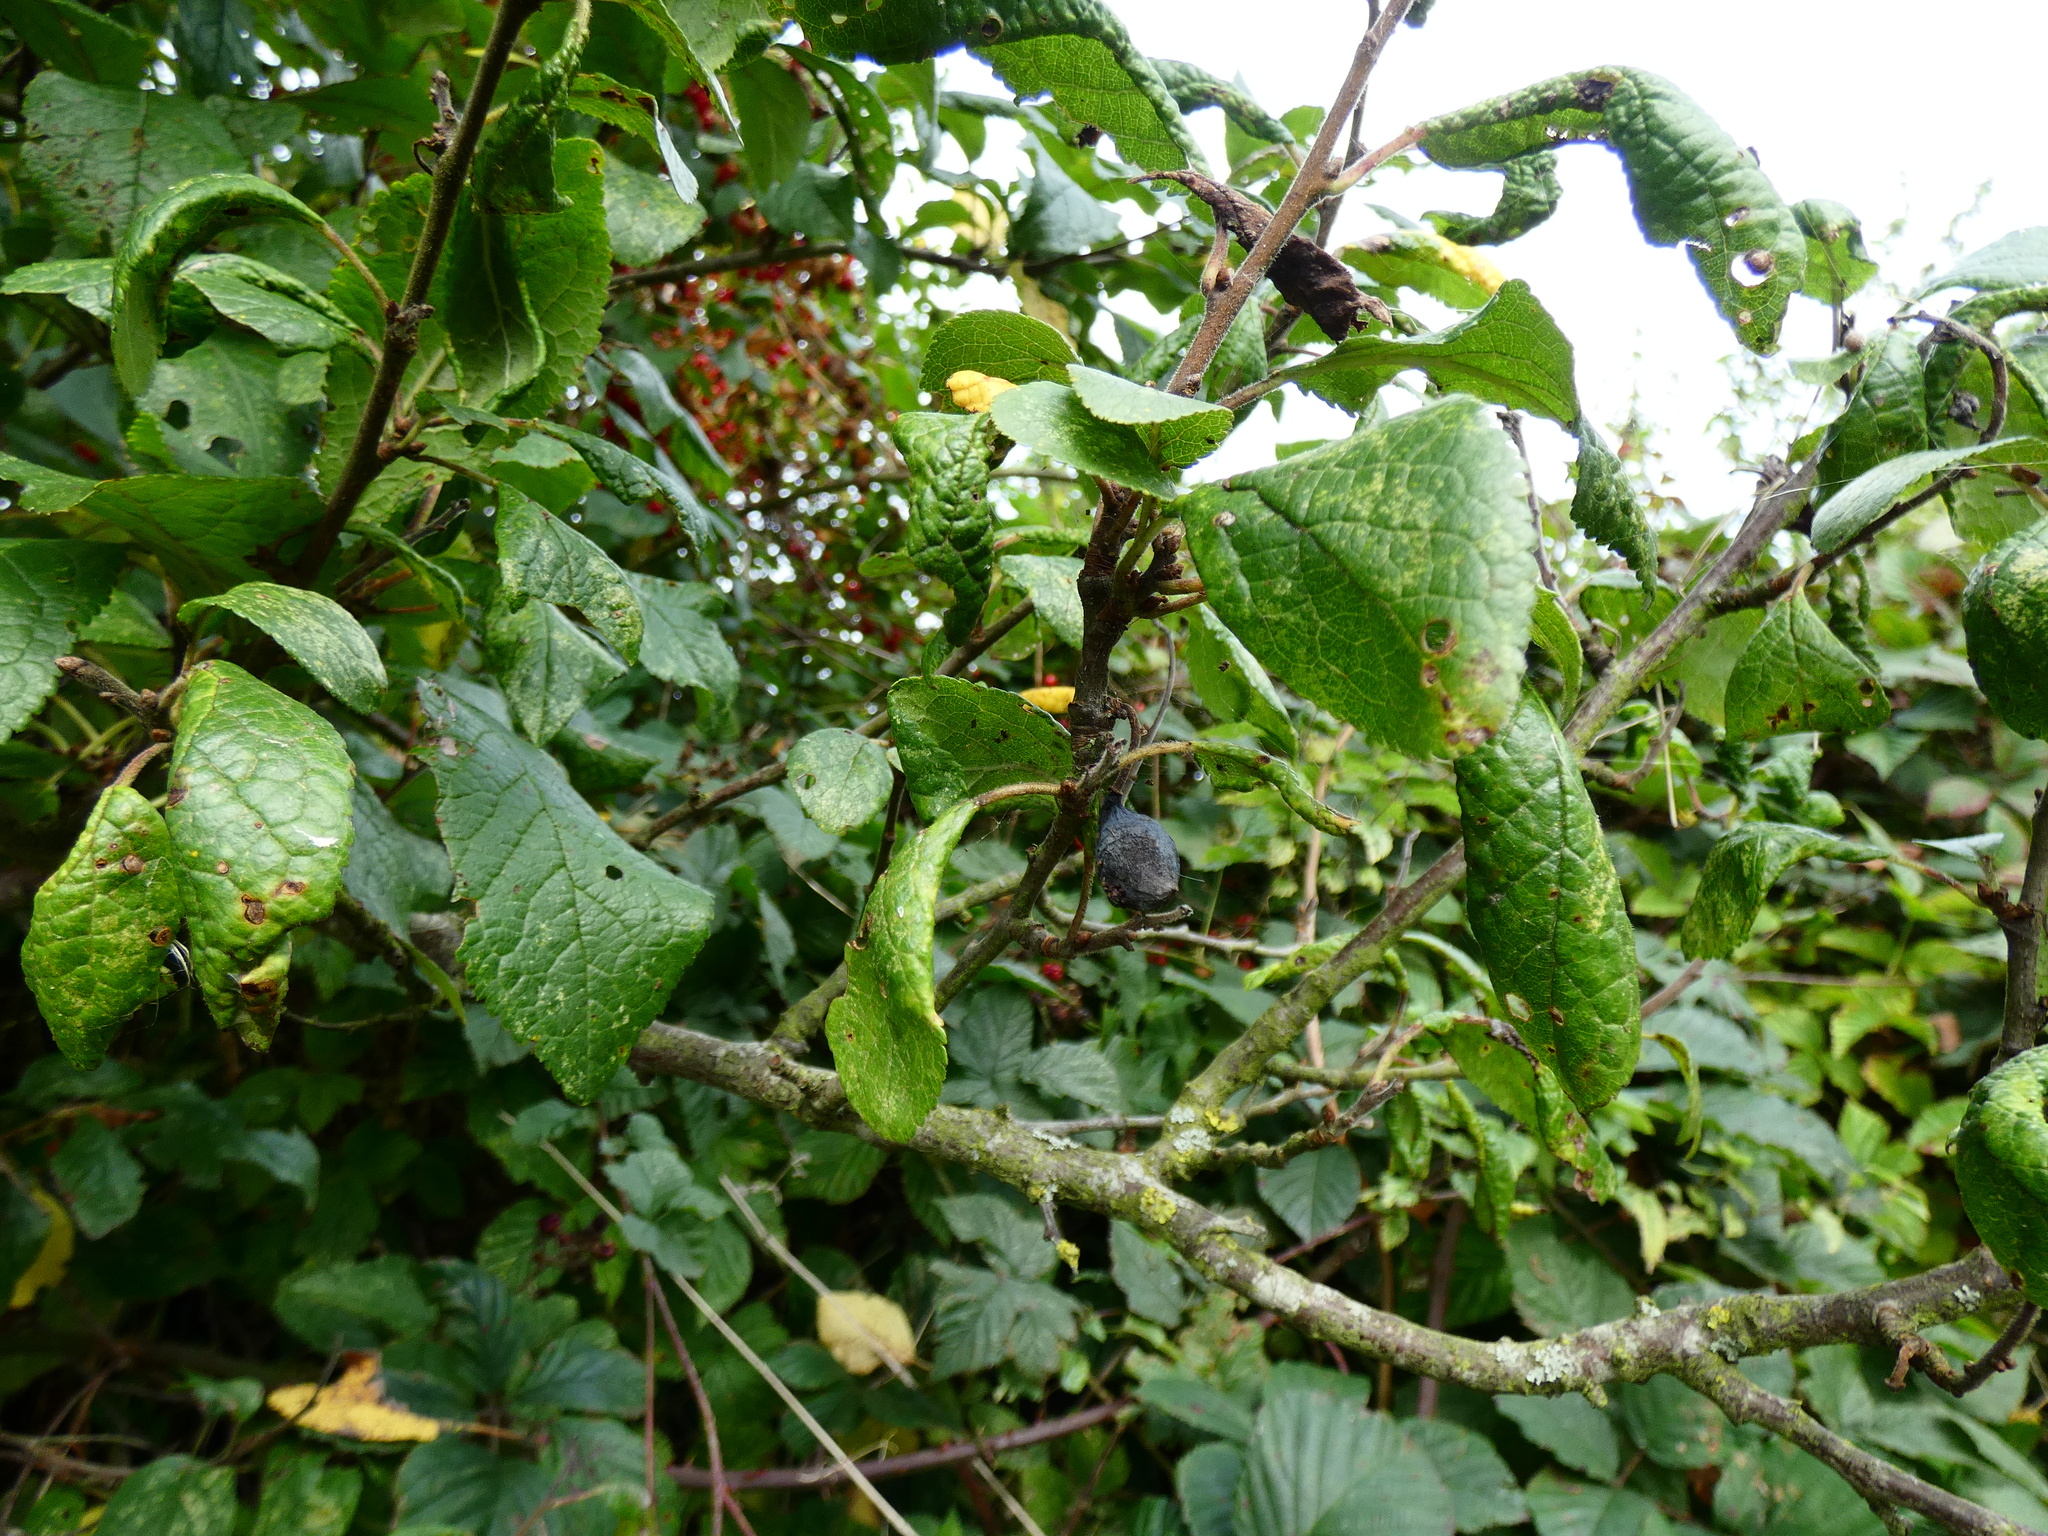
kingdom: Plantae
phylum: Tracheophyta
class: Magnoliopsida
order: Rosales
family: Rosaceae
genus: Prunus
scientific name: Prunus
